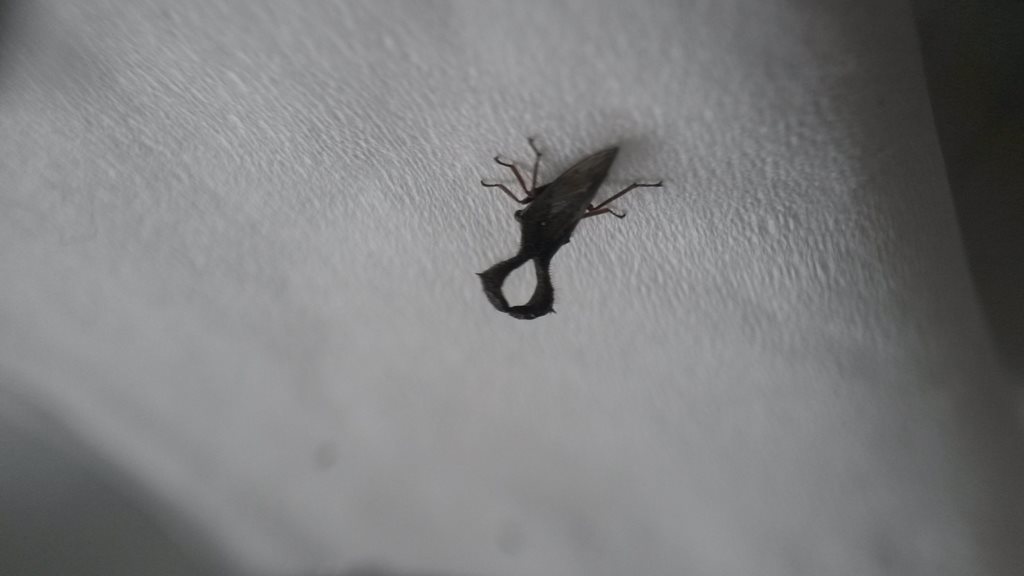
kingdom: Animalia
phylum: Arthropoda
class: Insecta
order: Hemiptera
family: Membracidae
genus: Lubra
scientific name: Lubra spinicornis
